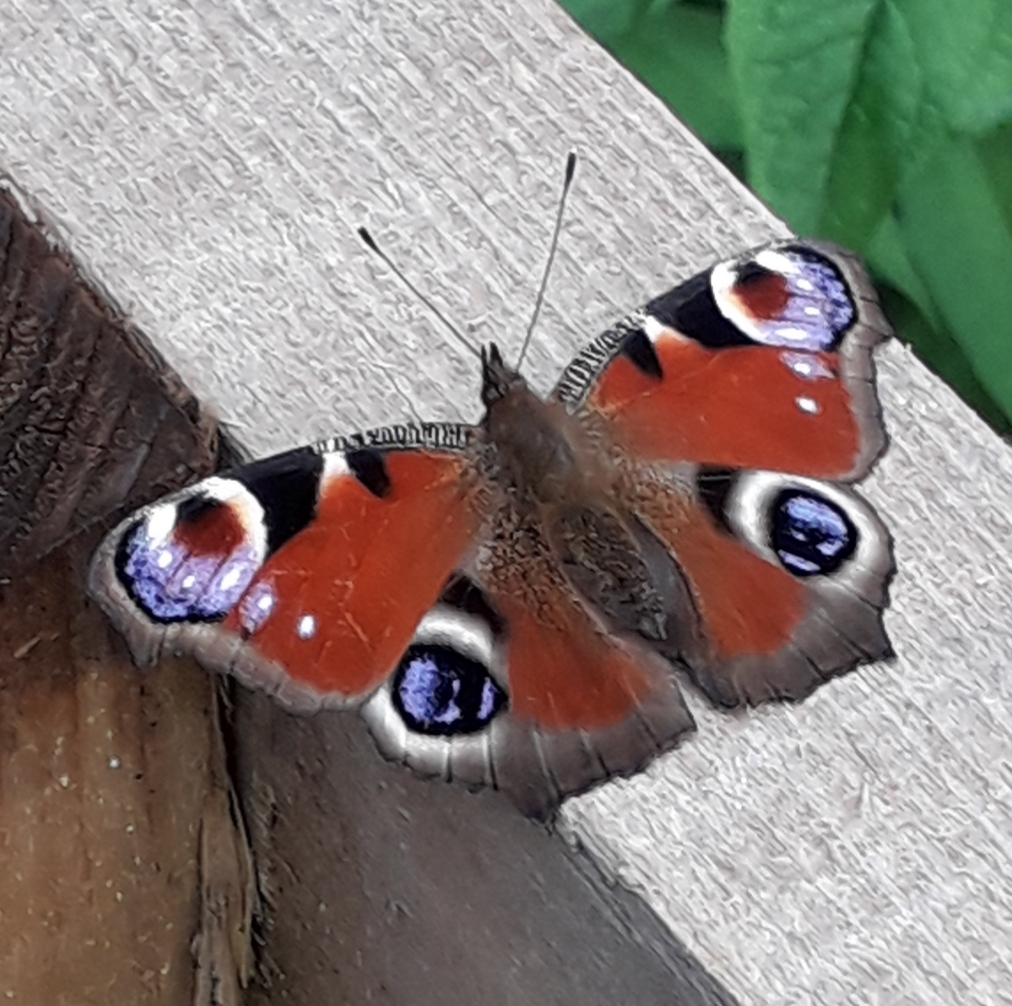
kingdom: Animalia
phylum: Arthropoda
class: Insecta
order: Lepidoptera
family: Nymphalidae
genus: Aglais
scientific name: Aglais io
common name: Peacock
